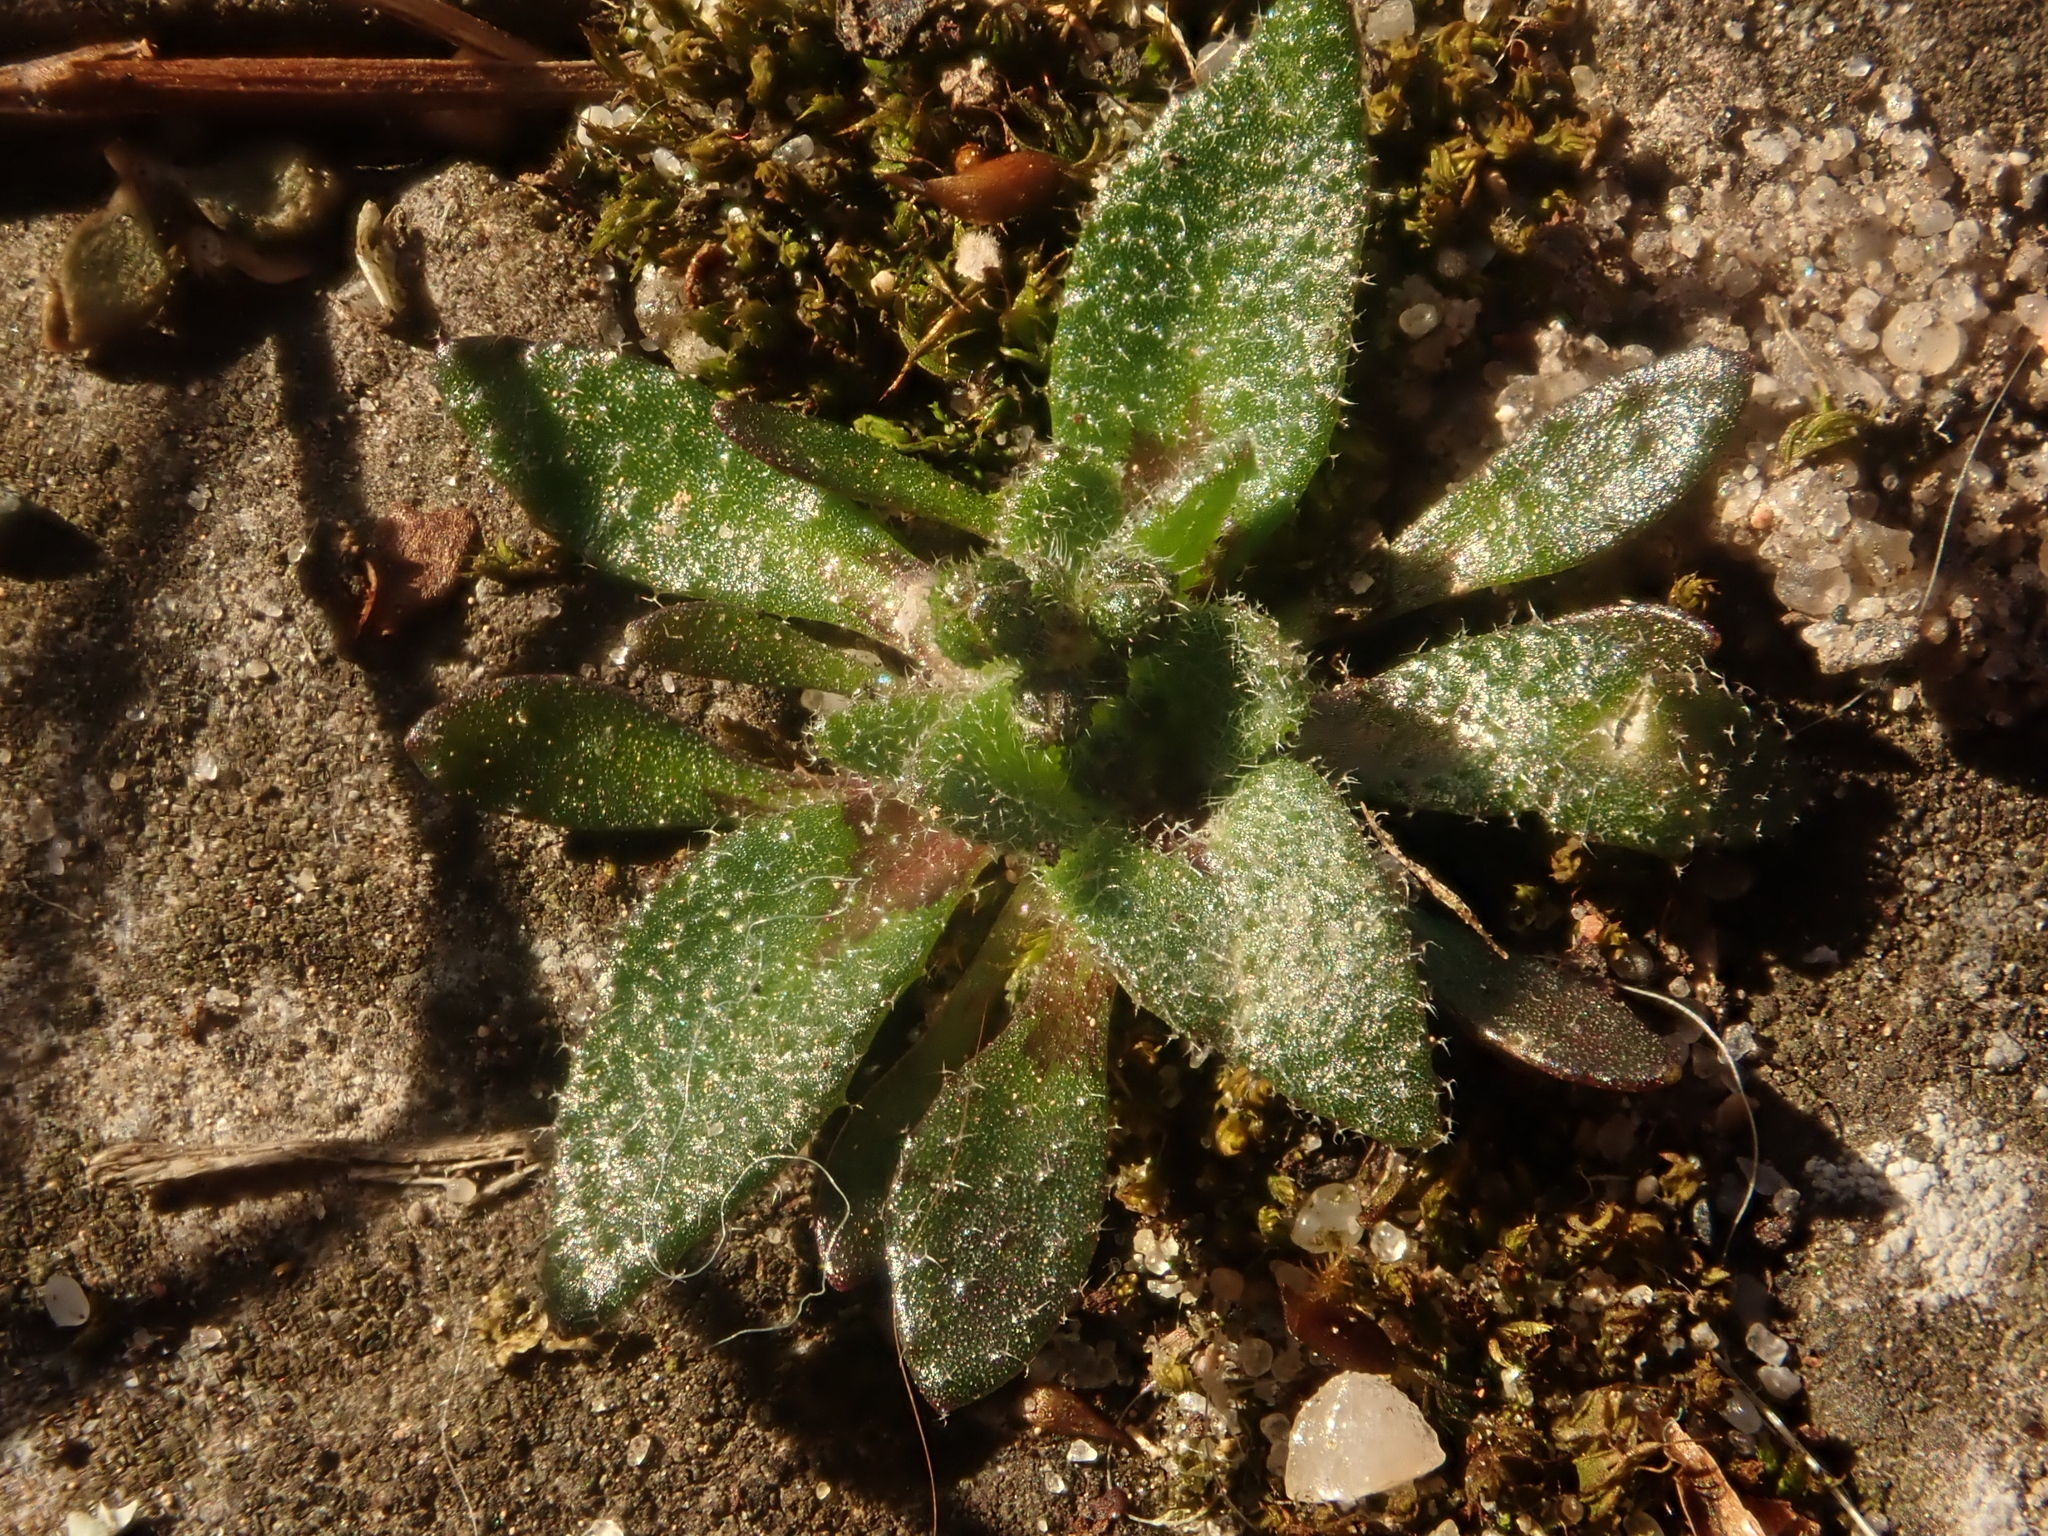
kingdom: Plantae
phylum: Tracheophyta
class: Magnoliopsida
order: Brassicales
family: Brassicaceae
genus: Draba
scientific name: Draba verna
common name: Spring draba
